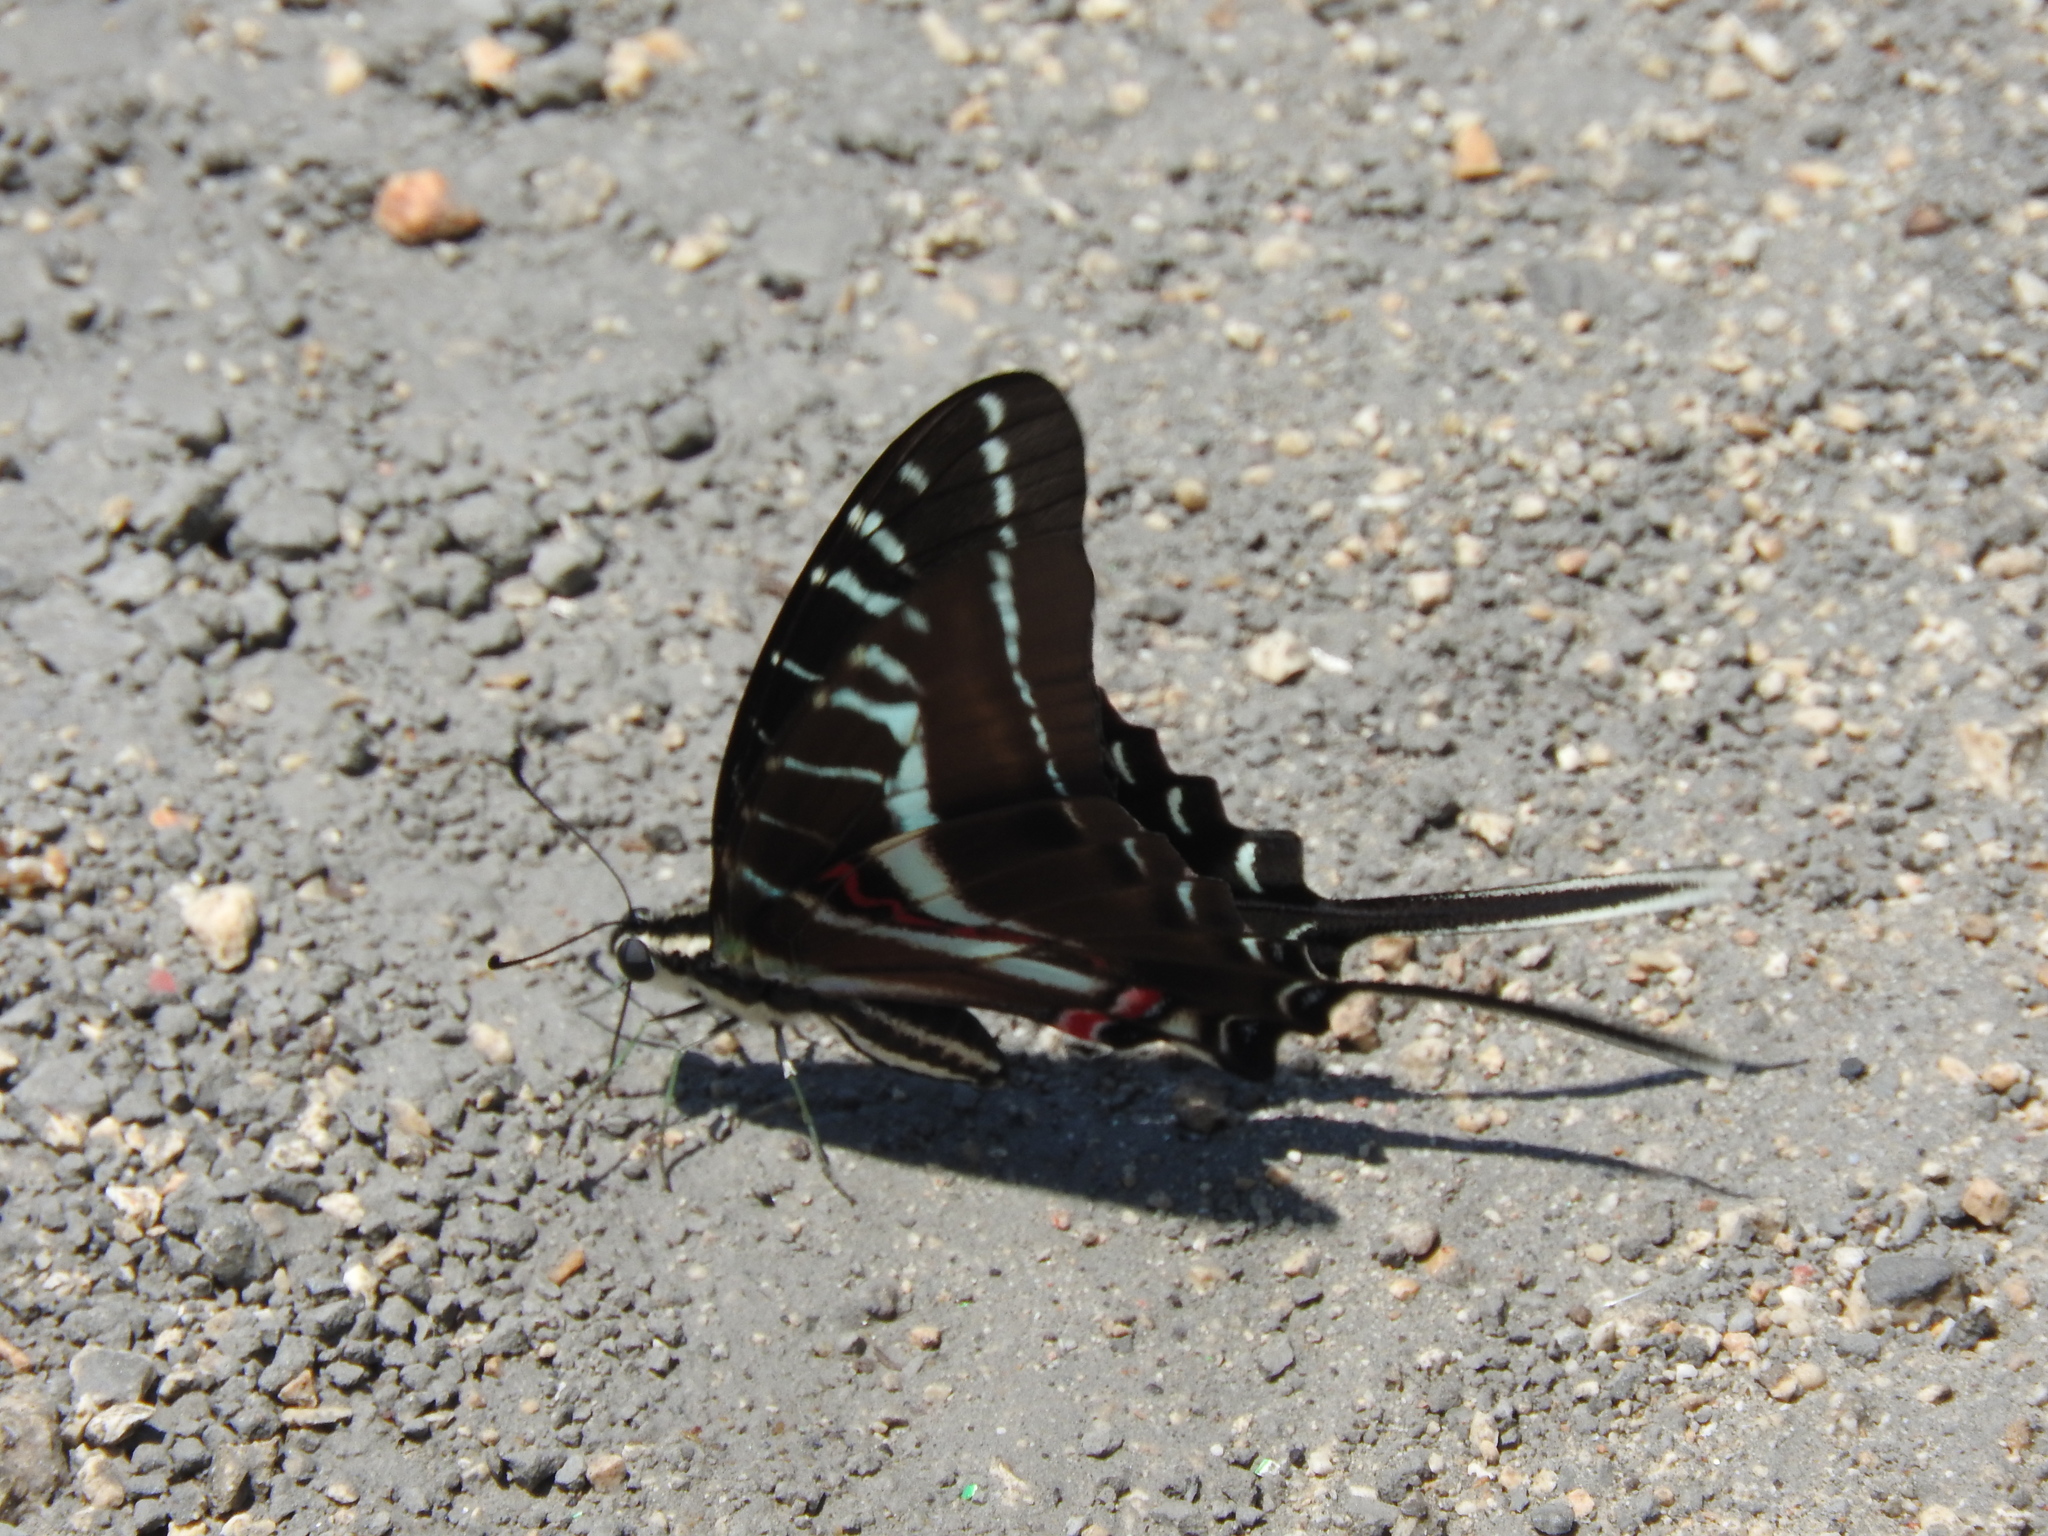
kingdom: Animalia
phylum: Arthropoda
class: Insecta
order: Lepidoptera
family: Papilionidae
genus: Protographium
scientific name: Protographium philolaus
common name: Dark zebra swallowtail
